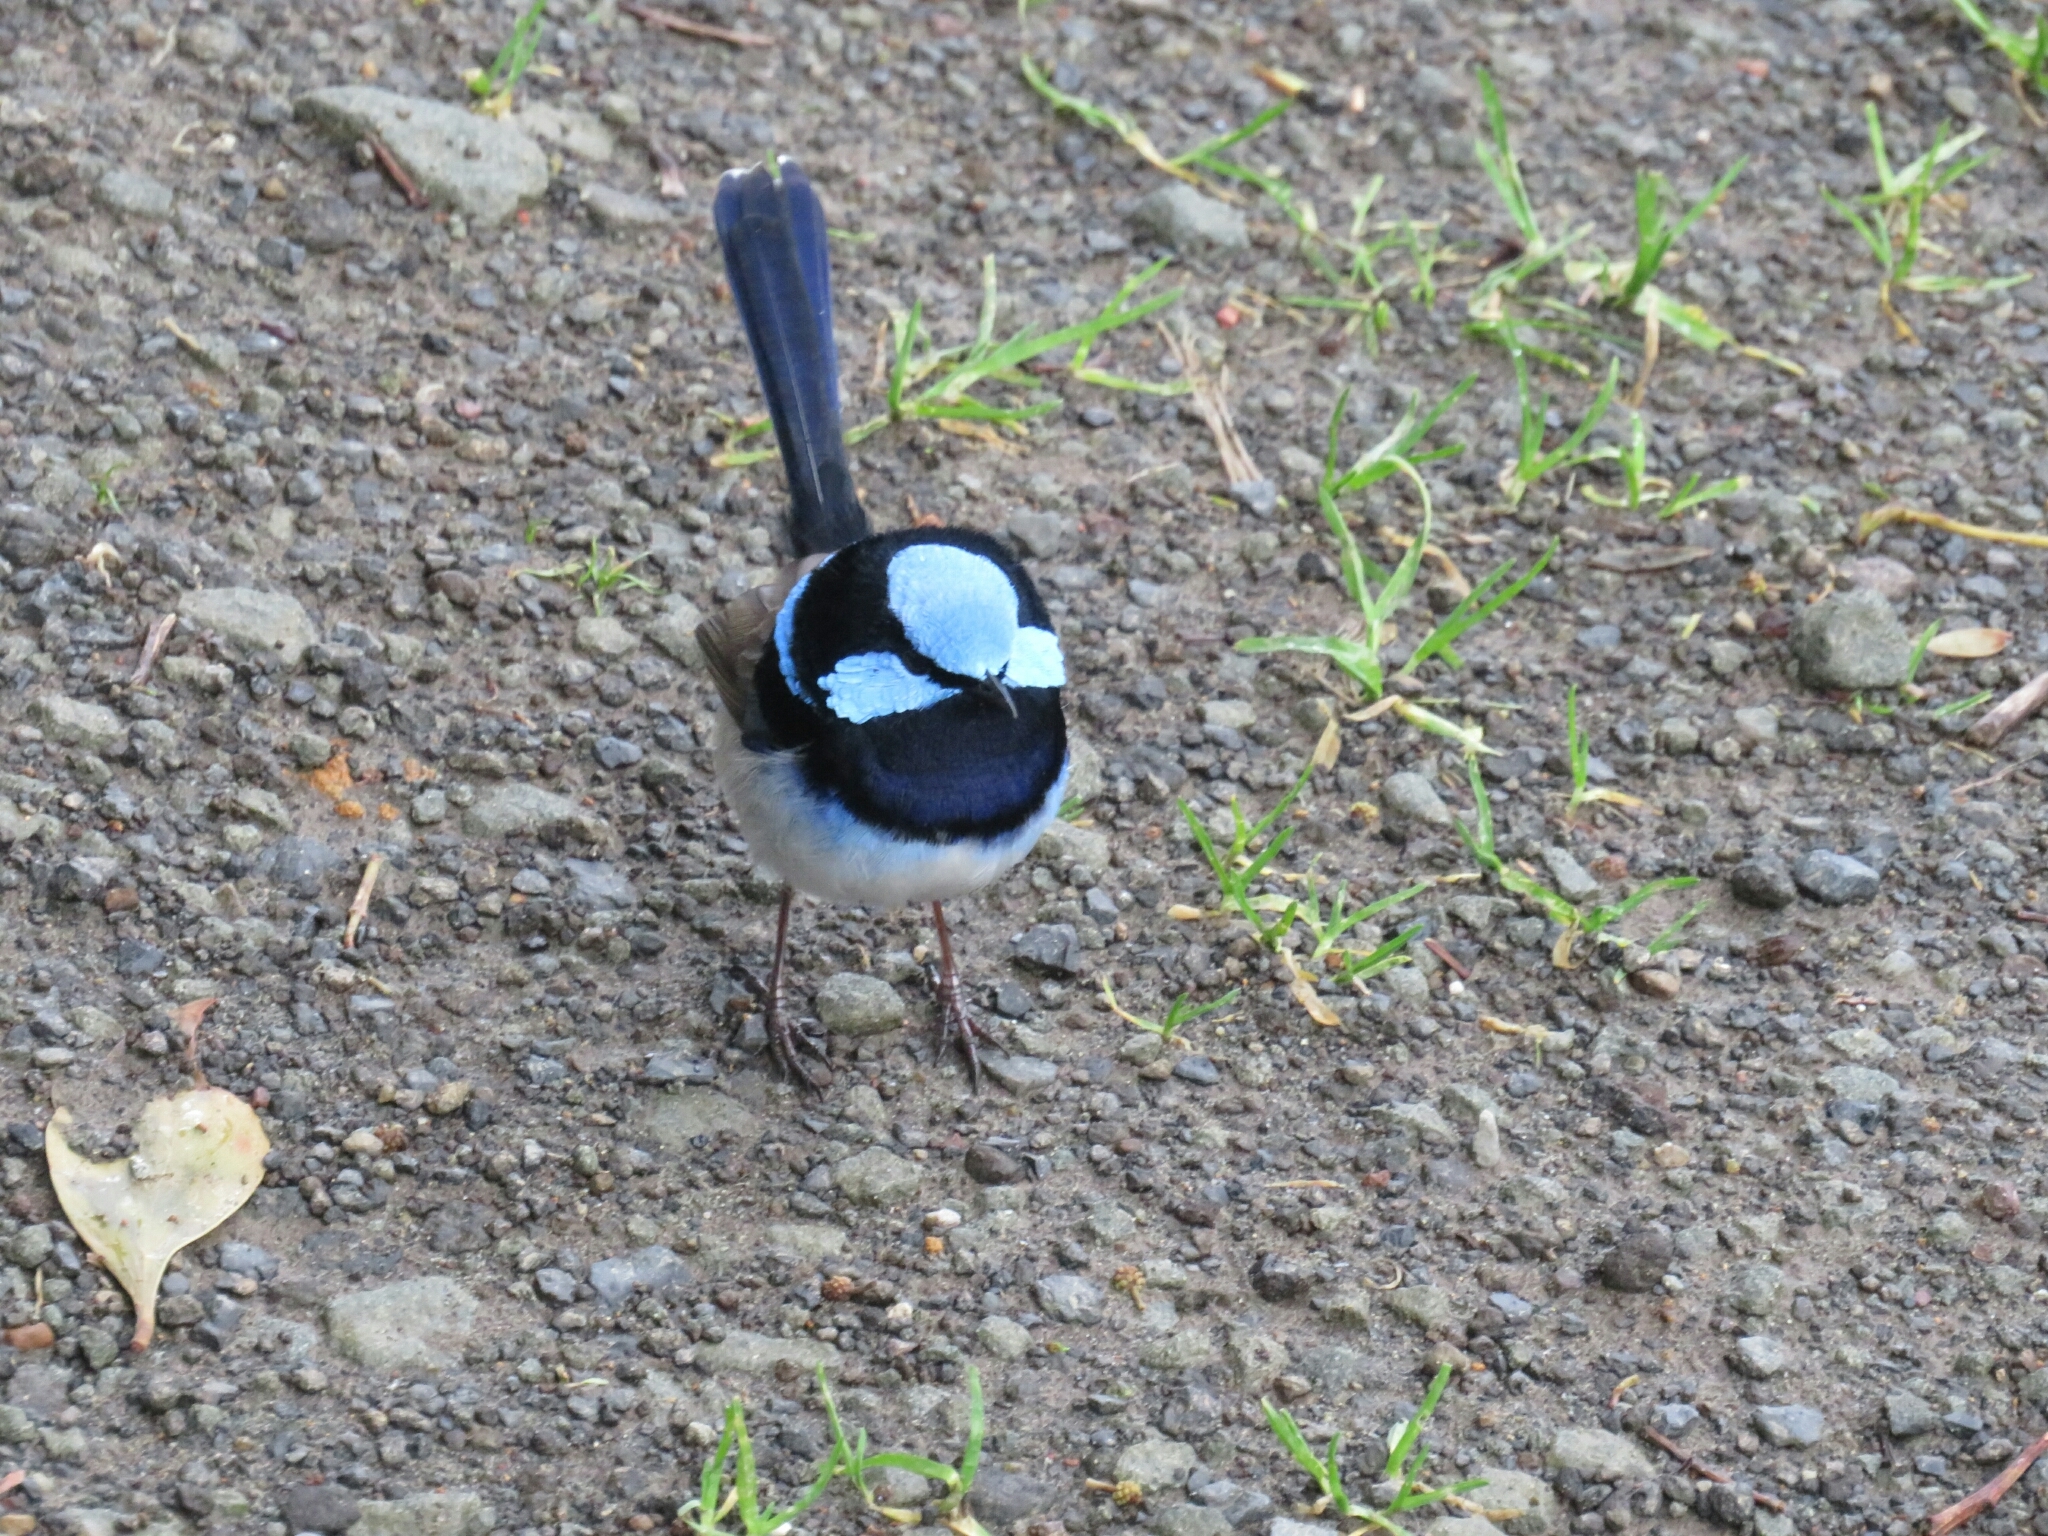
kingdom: Animalia
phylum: Chordata
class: Aves
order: Passeriformes
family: Maluridae
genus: Malurus
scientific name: Malurus cyaneus
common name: Superb fairywren
